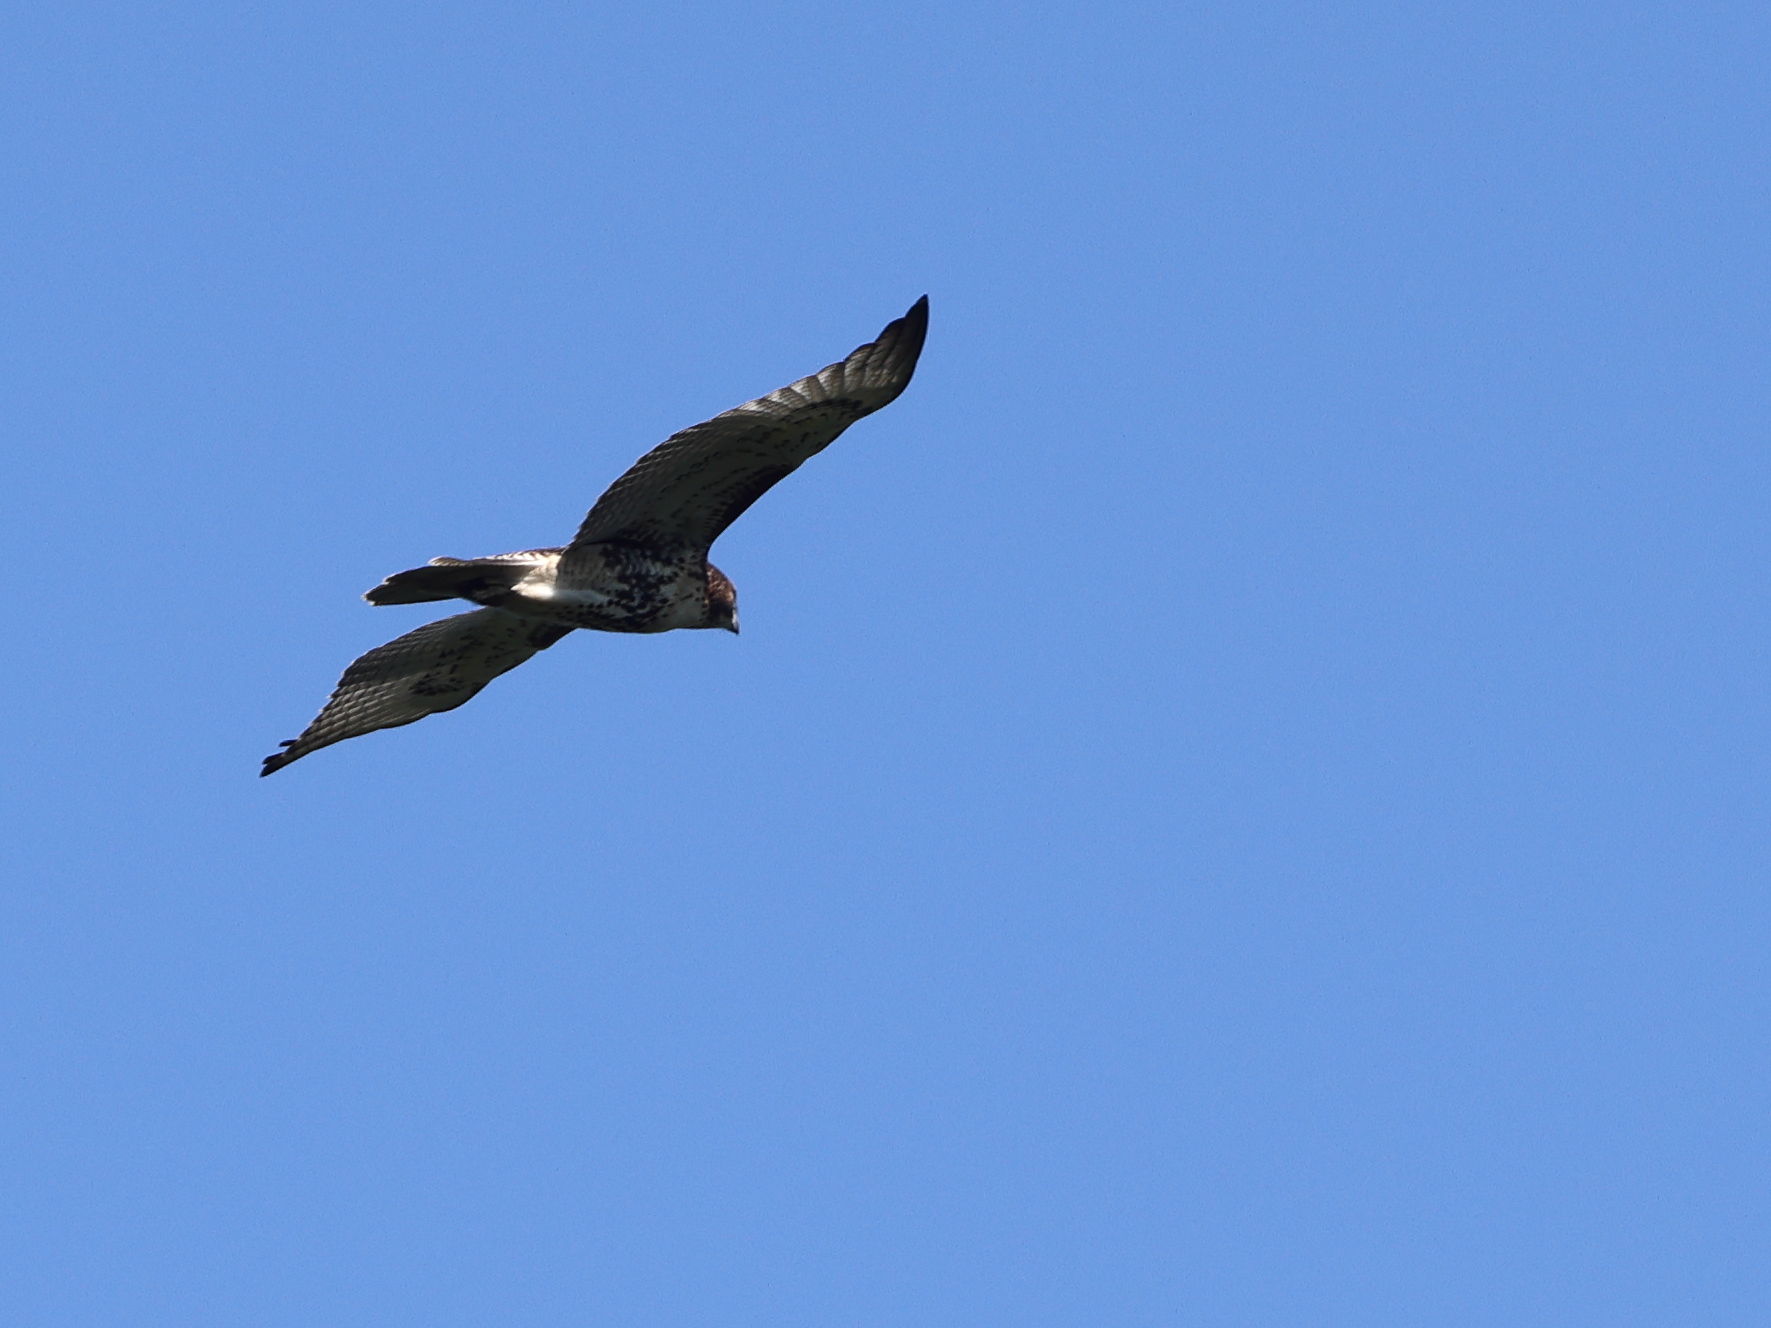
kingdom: Animalia
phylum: Chordata
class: Aves
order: Accipitriformes
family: Accipitridae
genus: Buteo
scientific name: Buteo jamaicensis
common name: Red-tailed hawk
